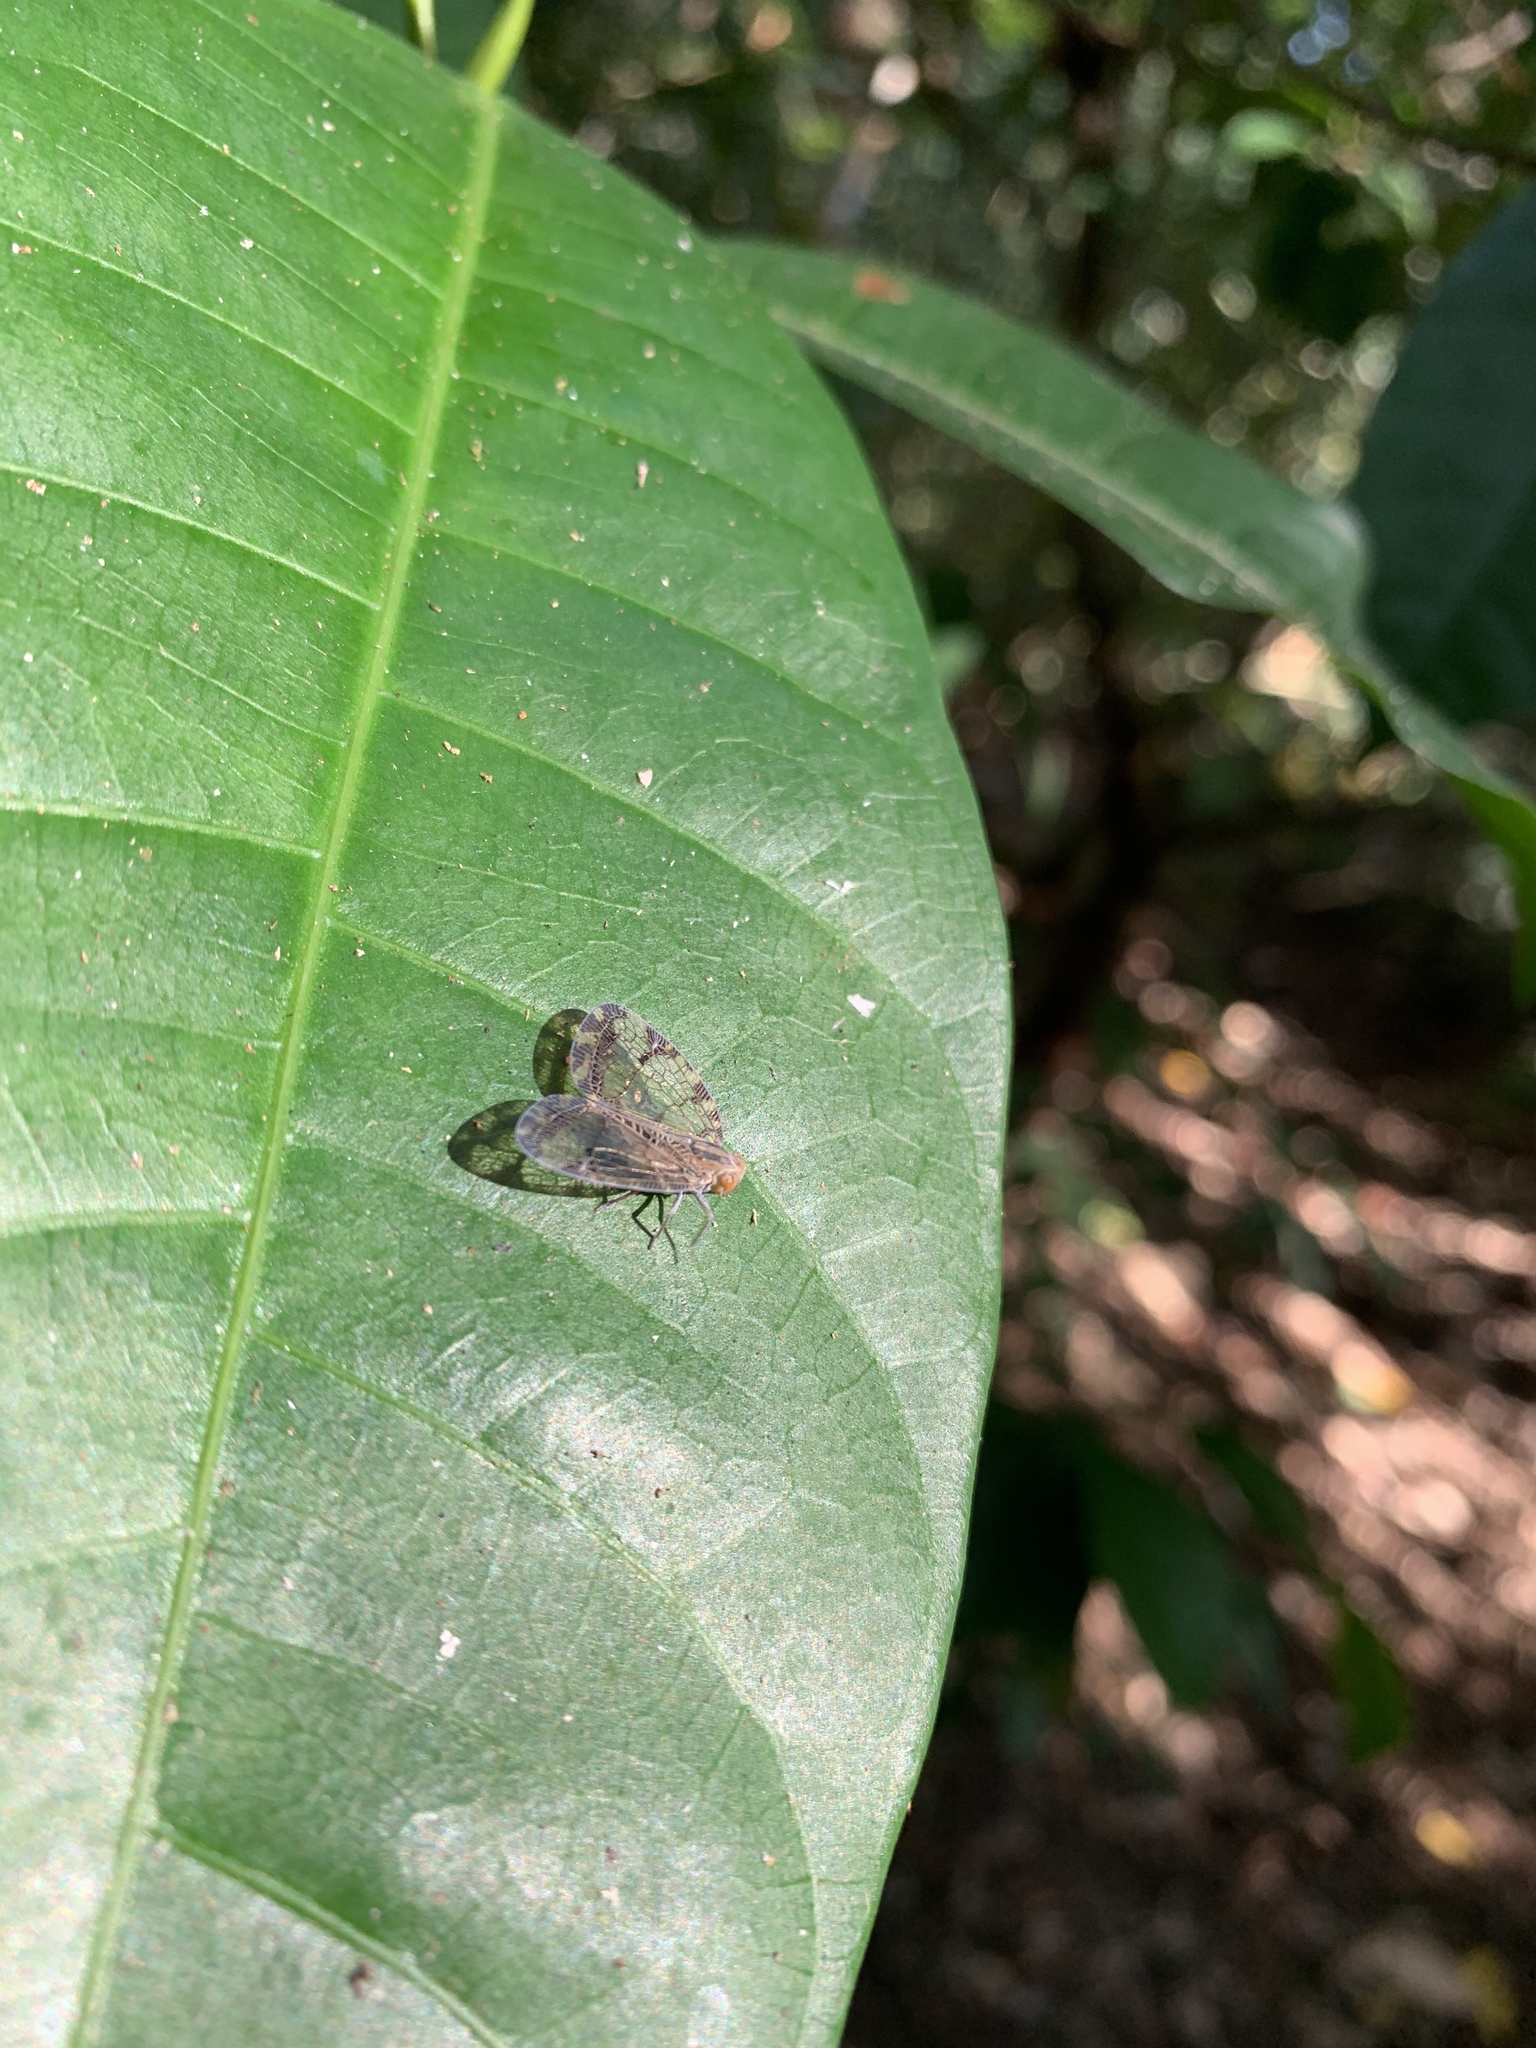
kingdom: Animalia
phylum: Arthropoda
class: Insecta
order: Hemiptera
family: Nogodinidae
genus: Biolleyana
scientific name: Biolleyana pictifrons
